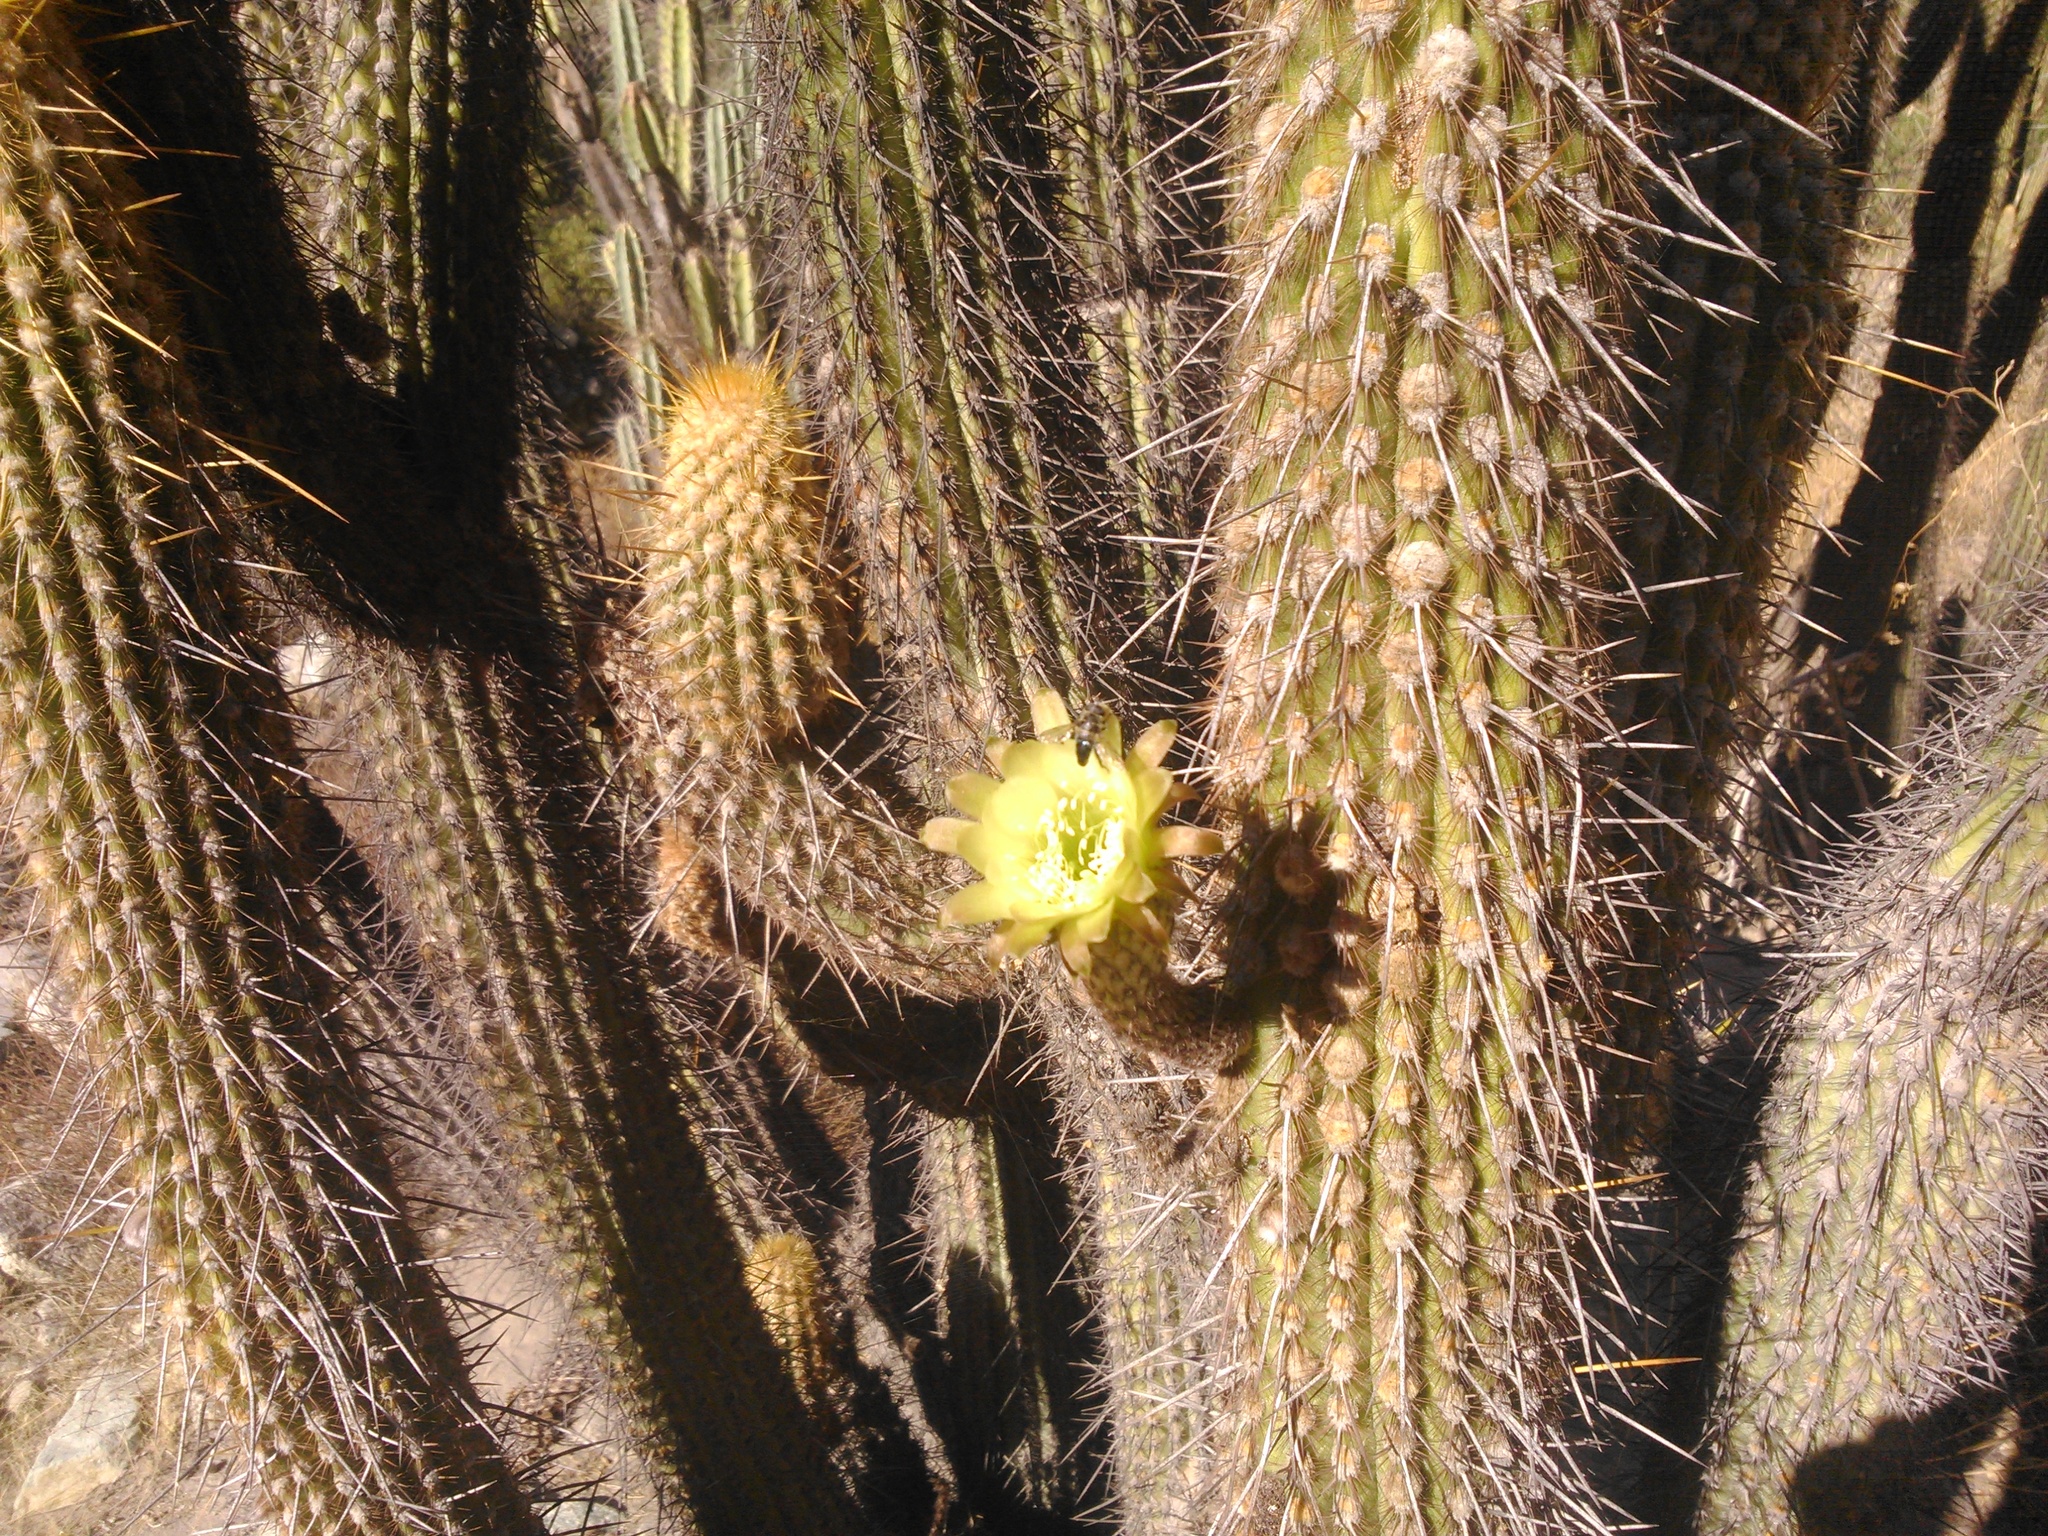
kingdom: Plantae
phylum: Tracheophyta
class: Magnoliopsida
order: Caryophyllales
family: Cactaceae
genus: Weberbauerocereus
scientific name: Weberbauerocereus weberbaueri
